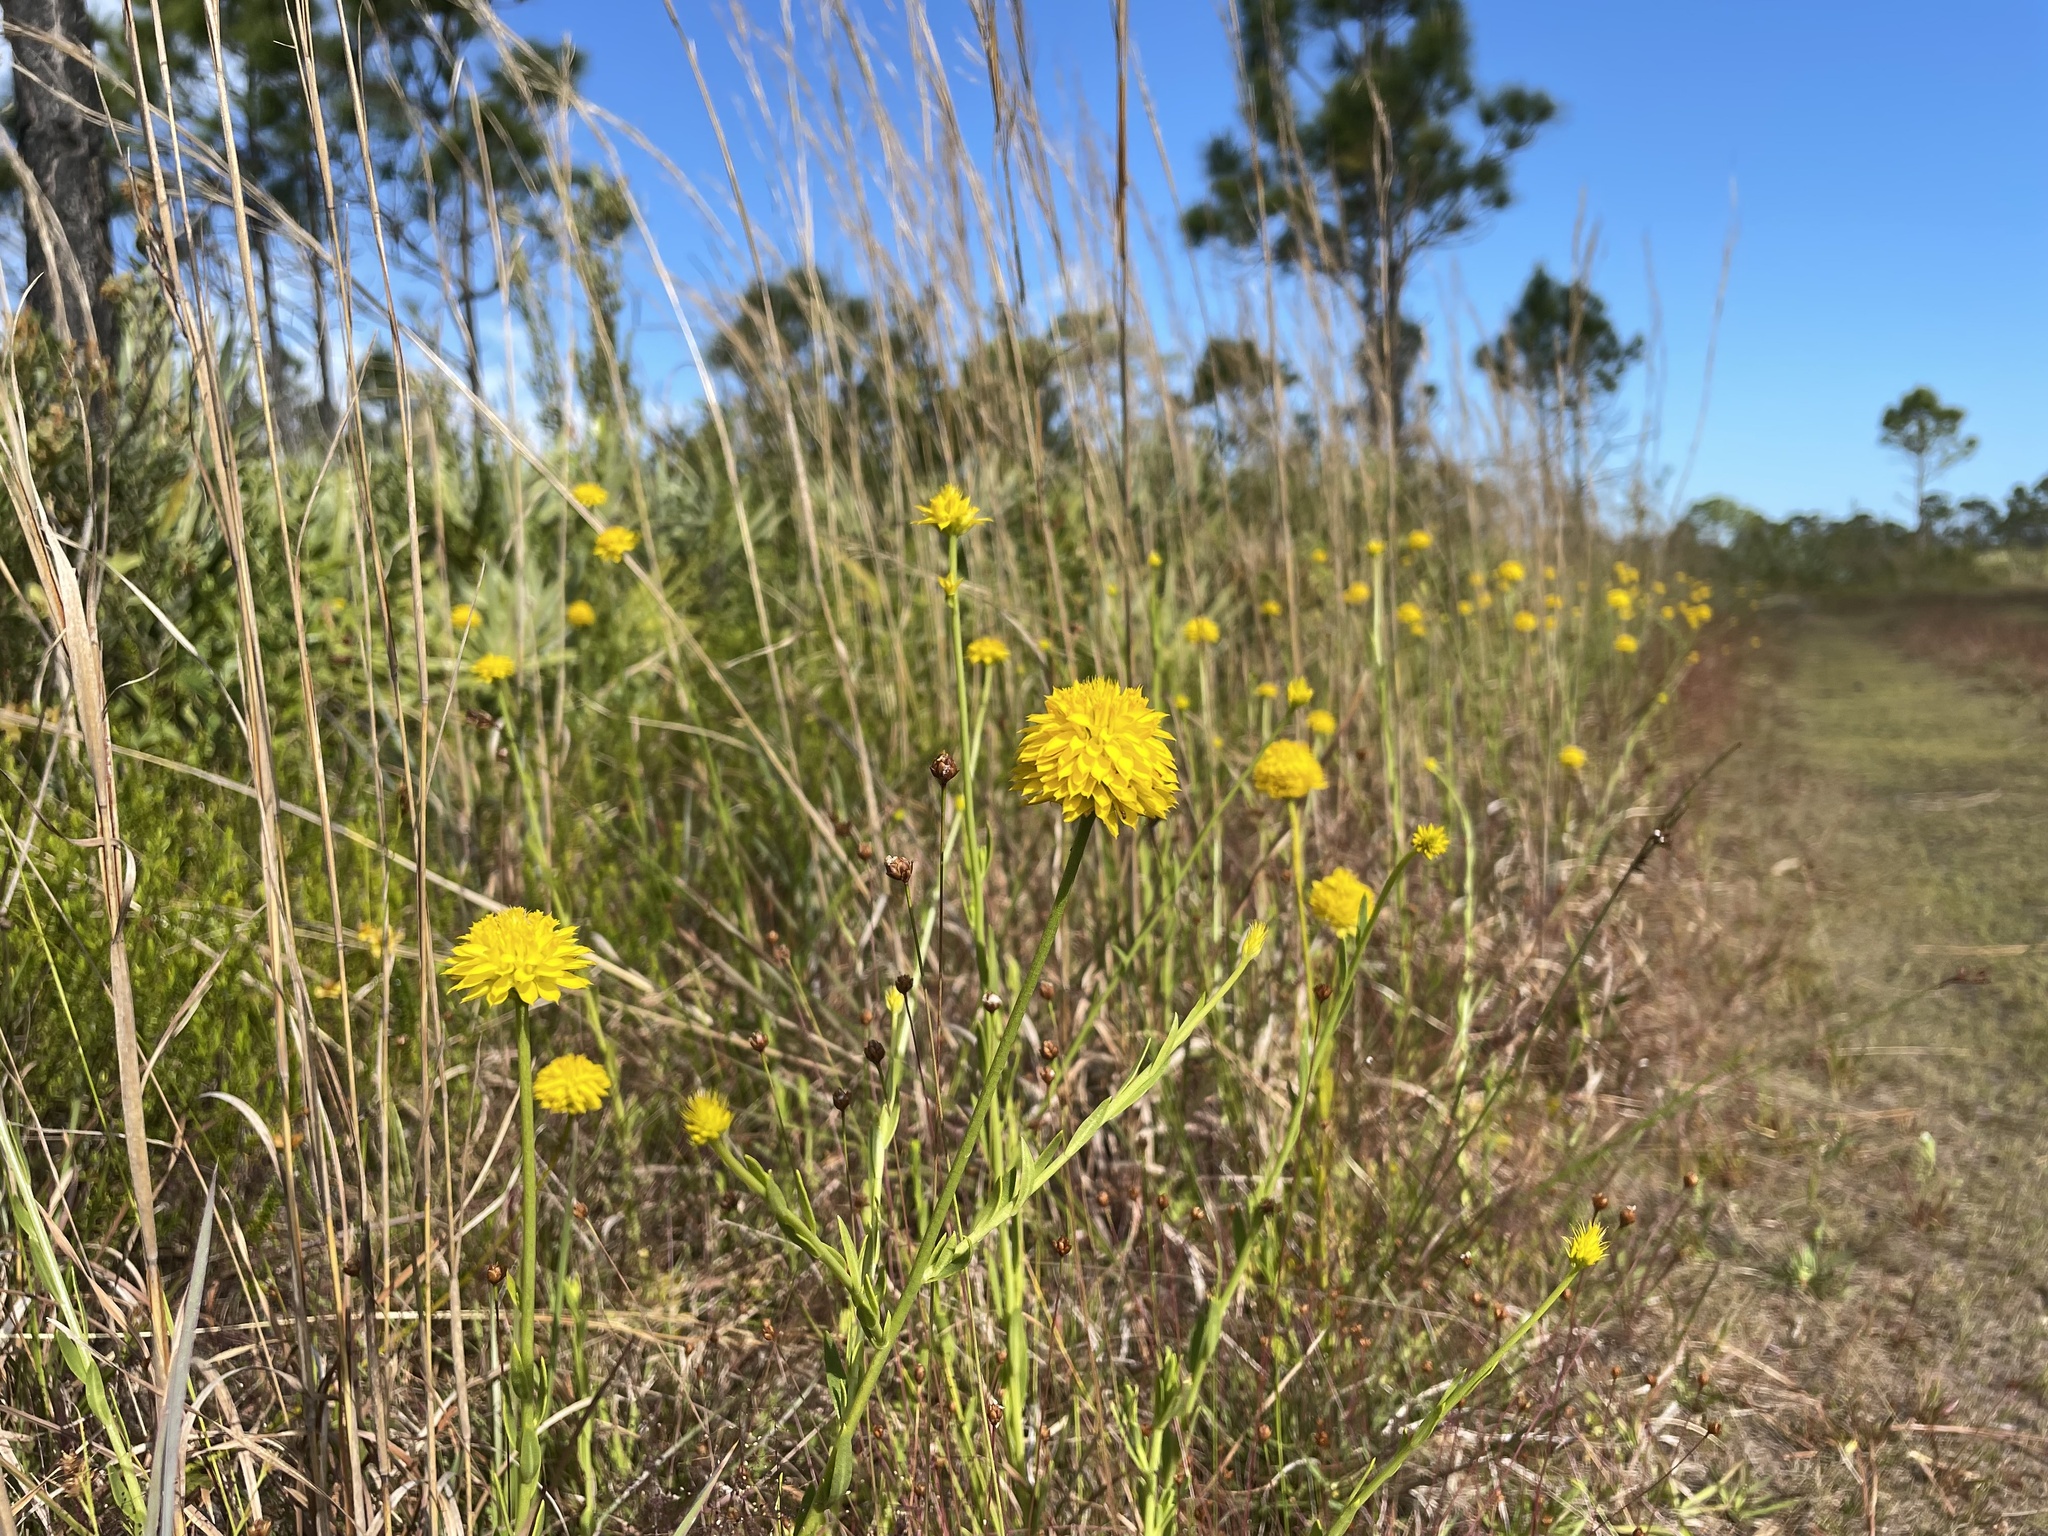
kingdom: Plantae
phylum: Tracheophyta
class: Magnoliopsida
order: Fabales
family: Polygalaceae
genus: Polygala
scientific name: Polygala rugelii
